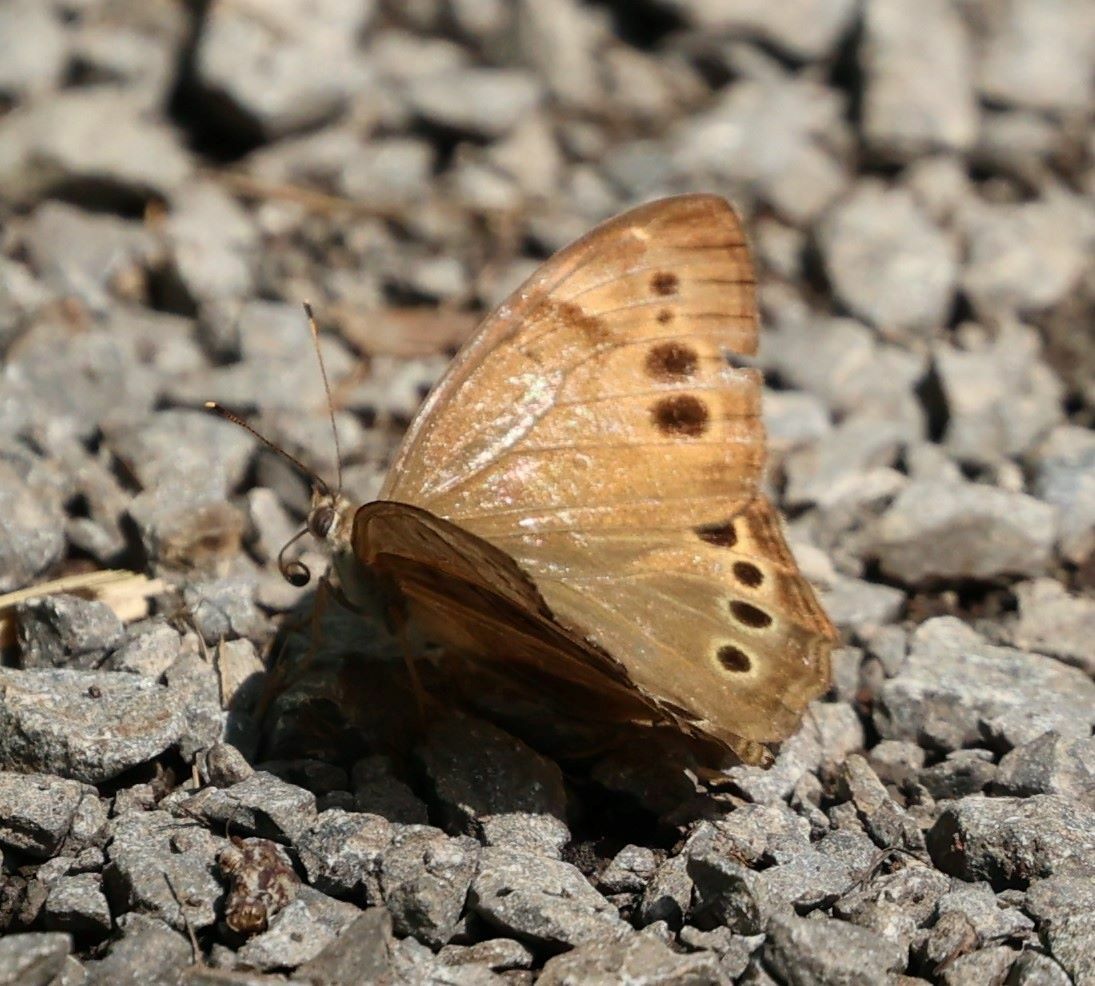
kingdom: Animalia
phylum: Arthropoda
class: Insecta
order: Lepidoptera
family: Nymphalidae
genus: Lethe
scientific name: Lethe anthedon
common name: Northern pearly-eye
